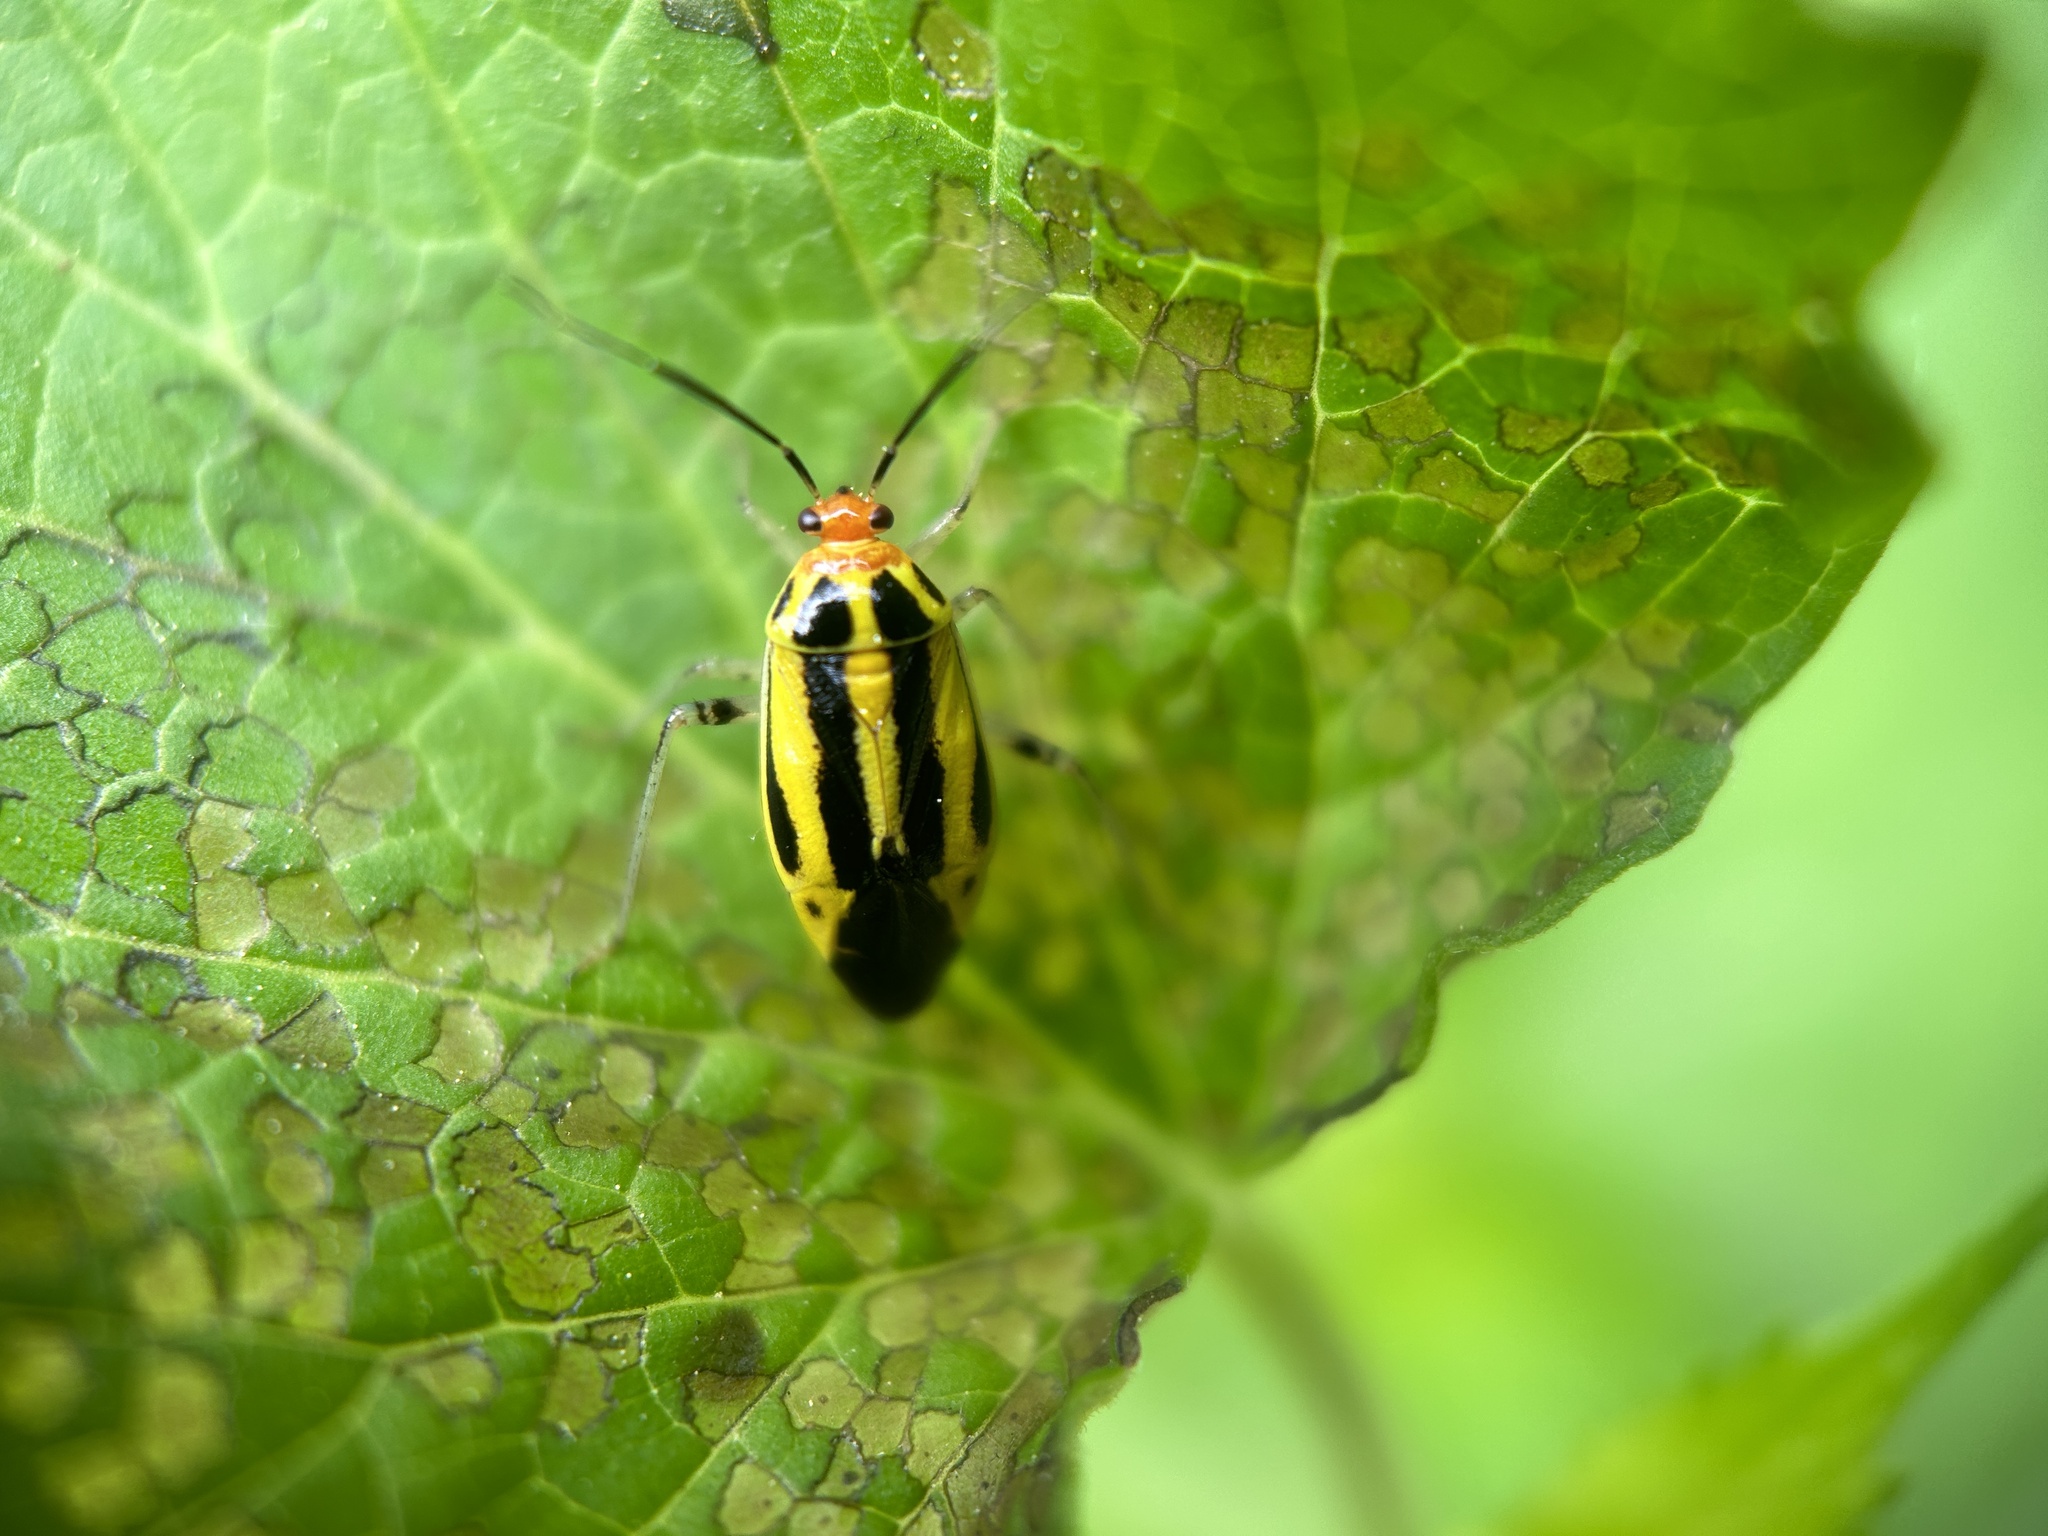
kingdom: Animalia
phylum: Arthropoda
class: Insecta
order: Hemiptera
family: Miridae
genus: Poecilocapsus
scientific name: Poecilocapsus lineatus
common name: Four-lined plant bug
